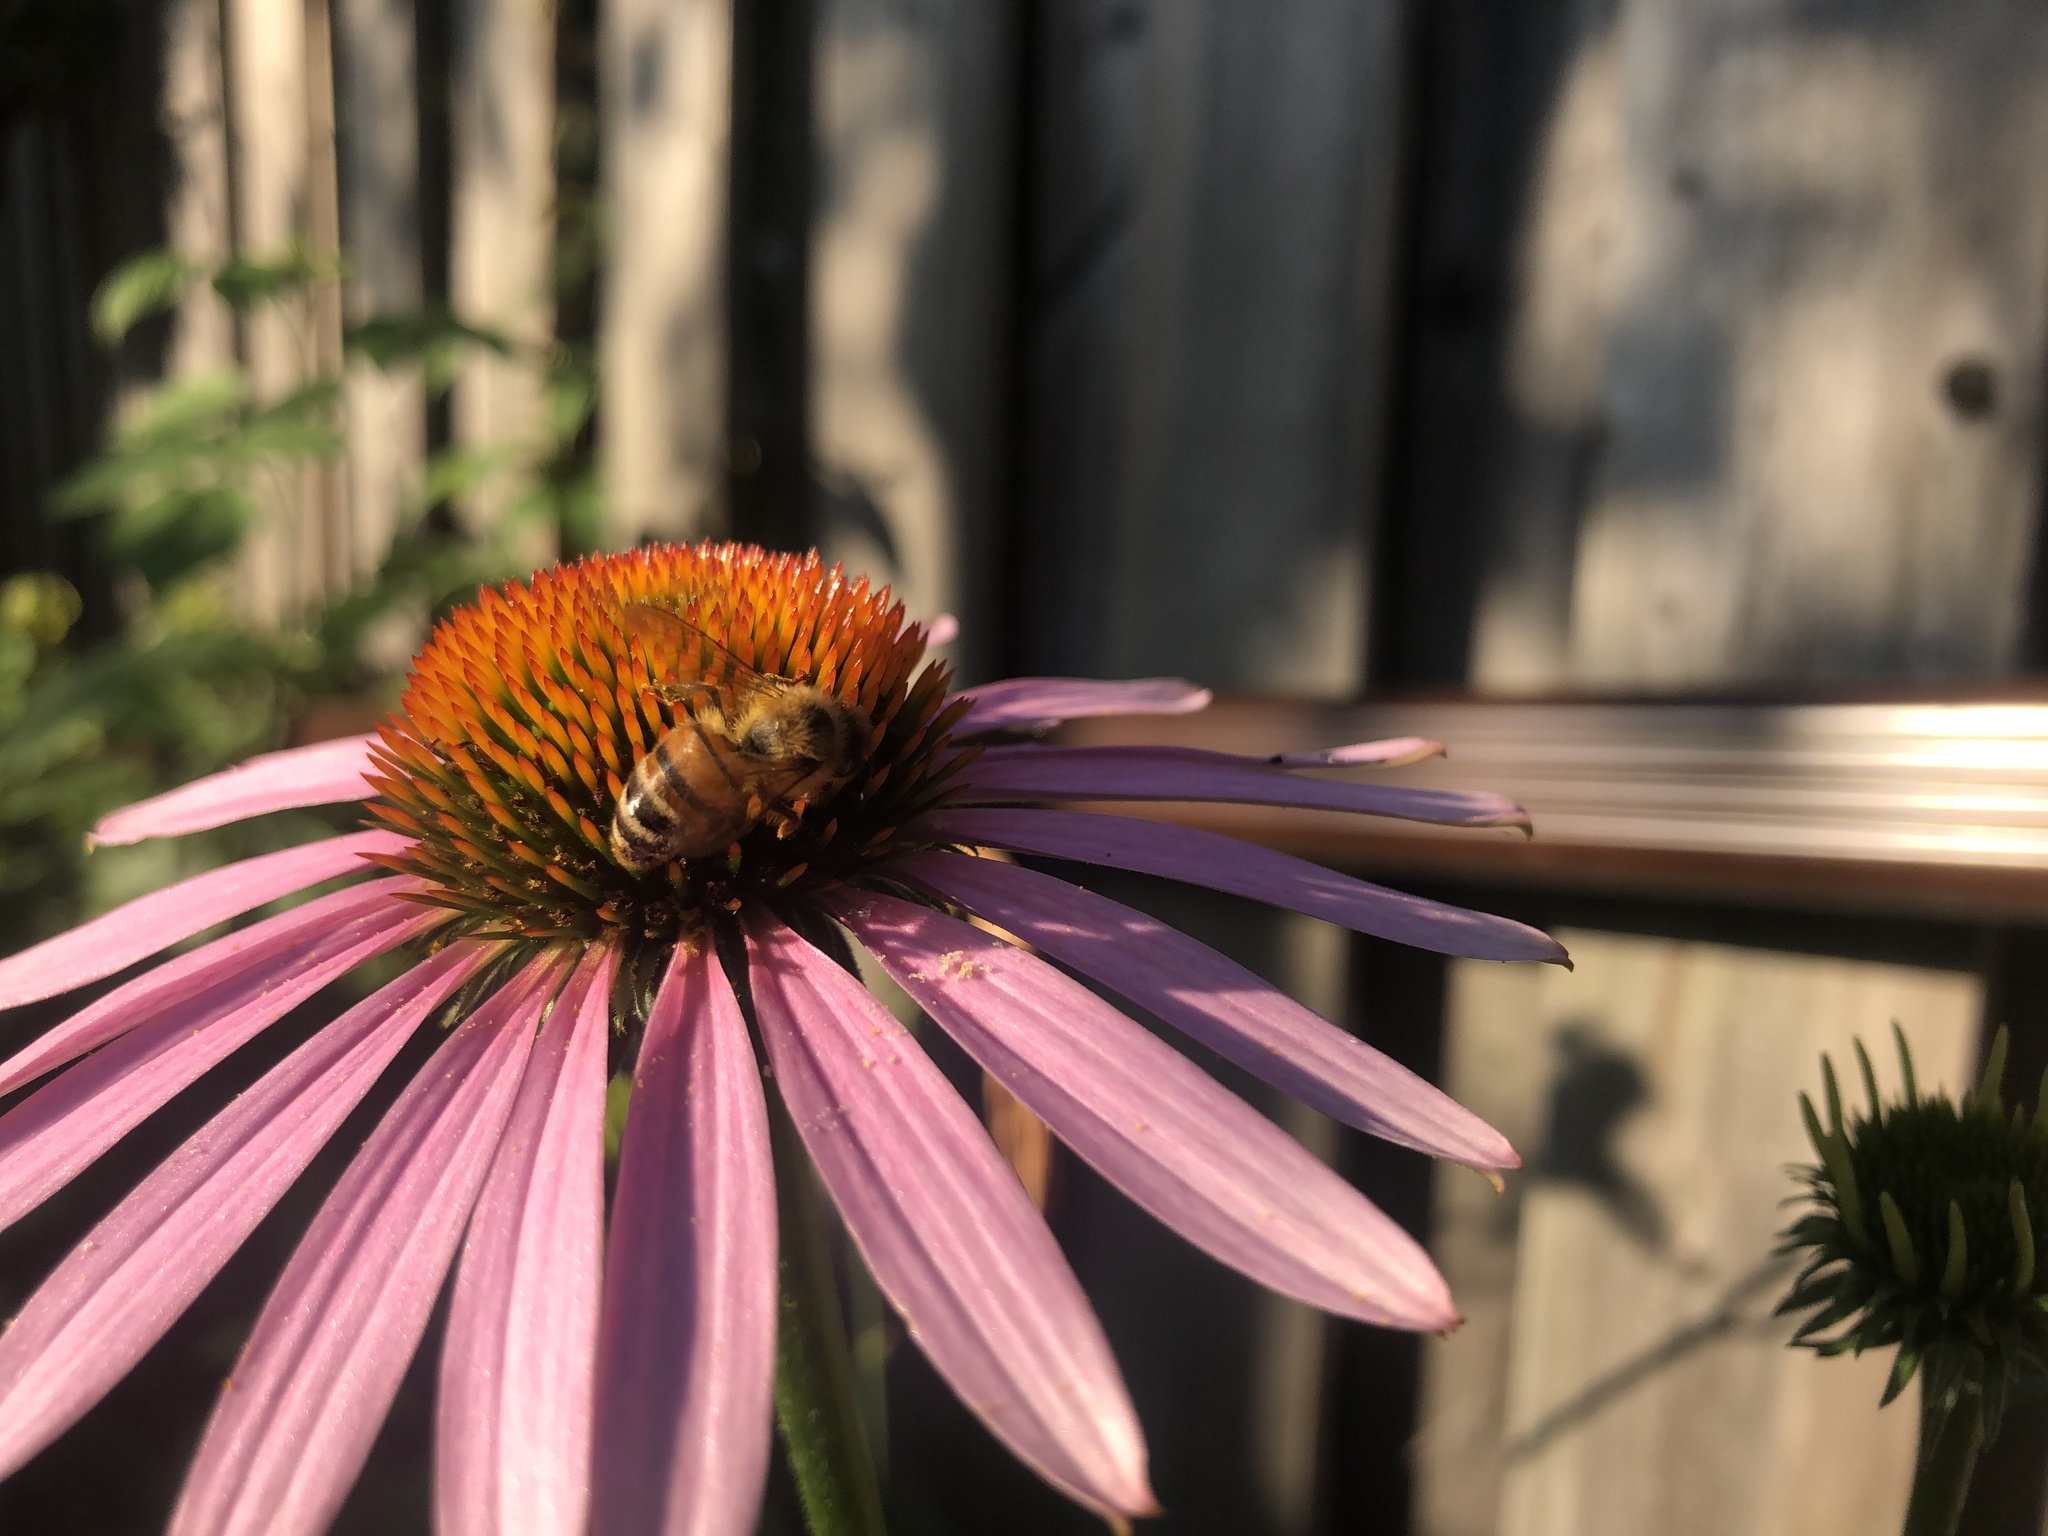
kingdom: Animalia
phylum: Arthropoda
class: Insecta
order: Hymenoptera
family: Apidae
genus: Apis
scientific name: Apis mellifera
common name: Honey bee
